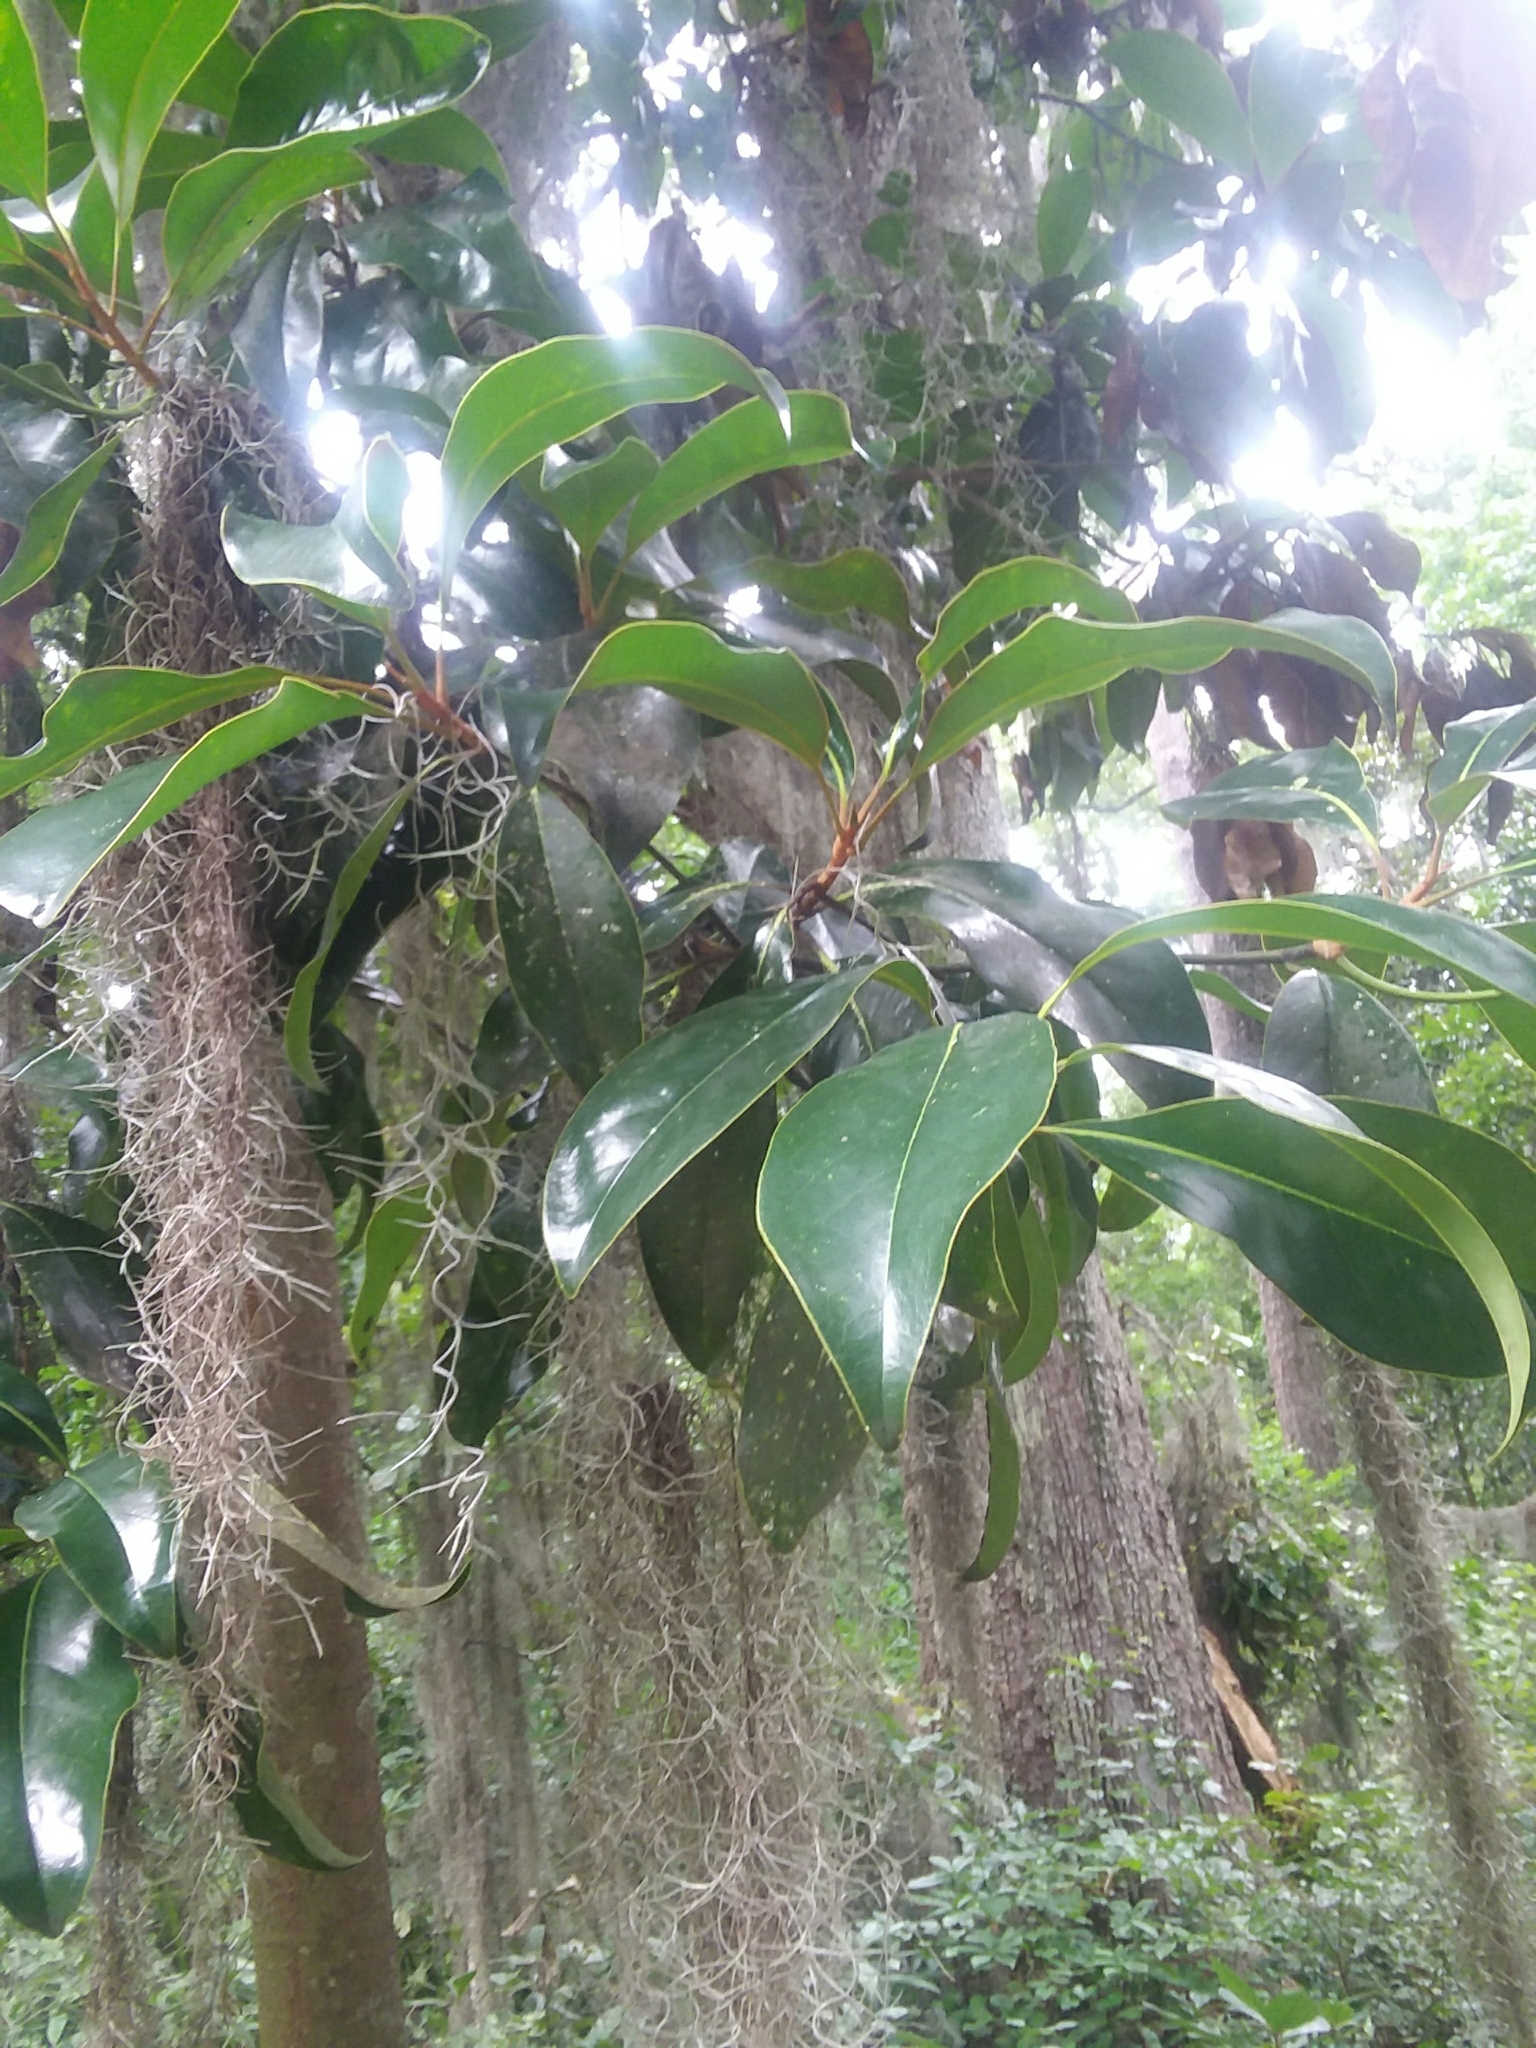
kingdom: Plantae
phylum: Tracheophyta
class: Magnoliopsida
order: Magnoliales
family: Magnoliaceae
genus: Magnolia
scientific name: Magnolia grandiflora
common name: Southern magnolia
